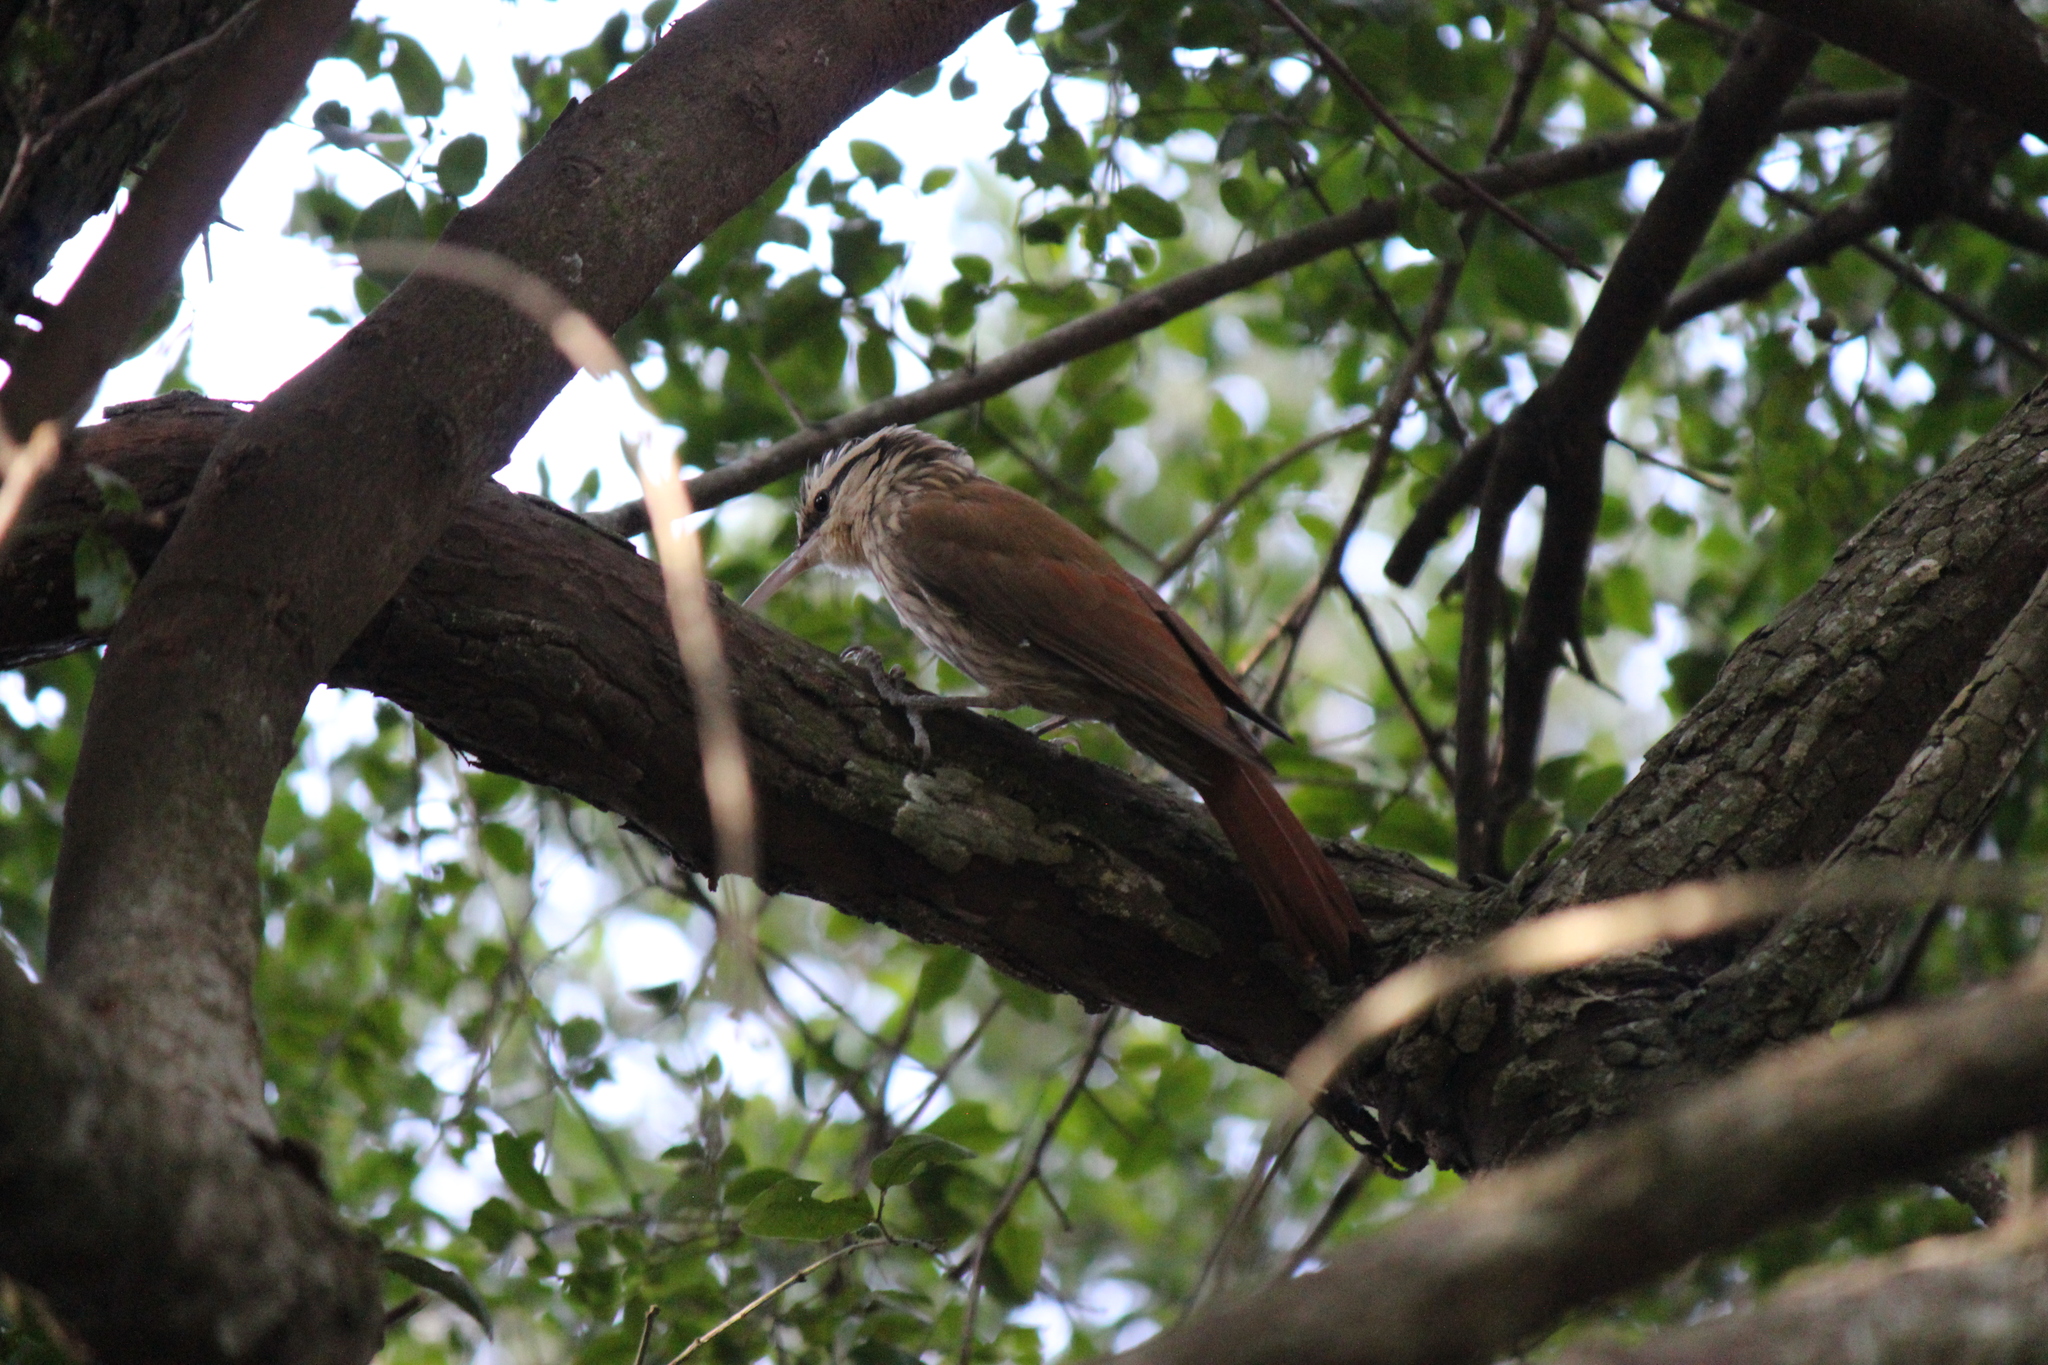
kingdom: Animalia
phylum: Chordata
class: Aves
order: Passeriformes
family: Furnariidae
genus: Lepidocolaptes
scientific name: Lepidocolaptes angustirostris
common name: Narrow-billed woodcreeper
